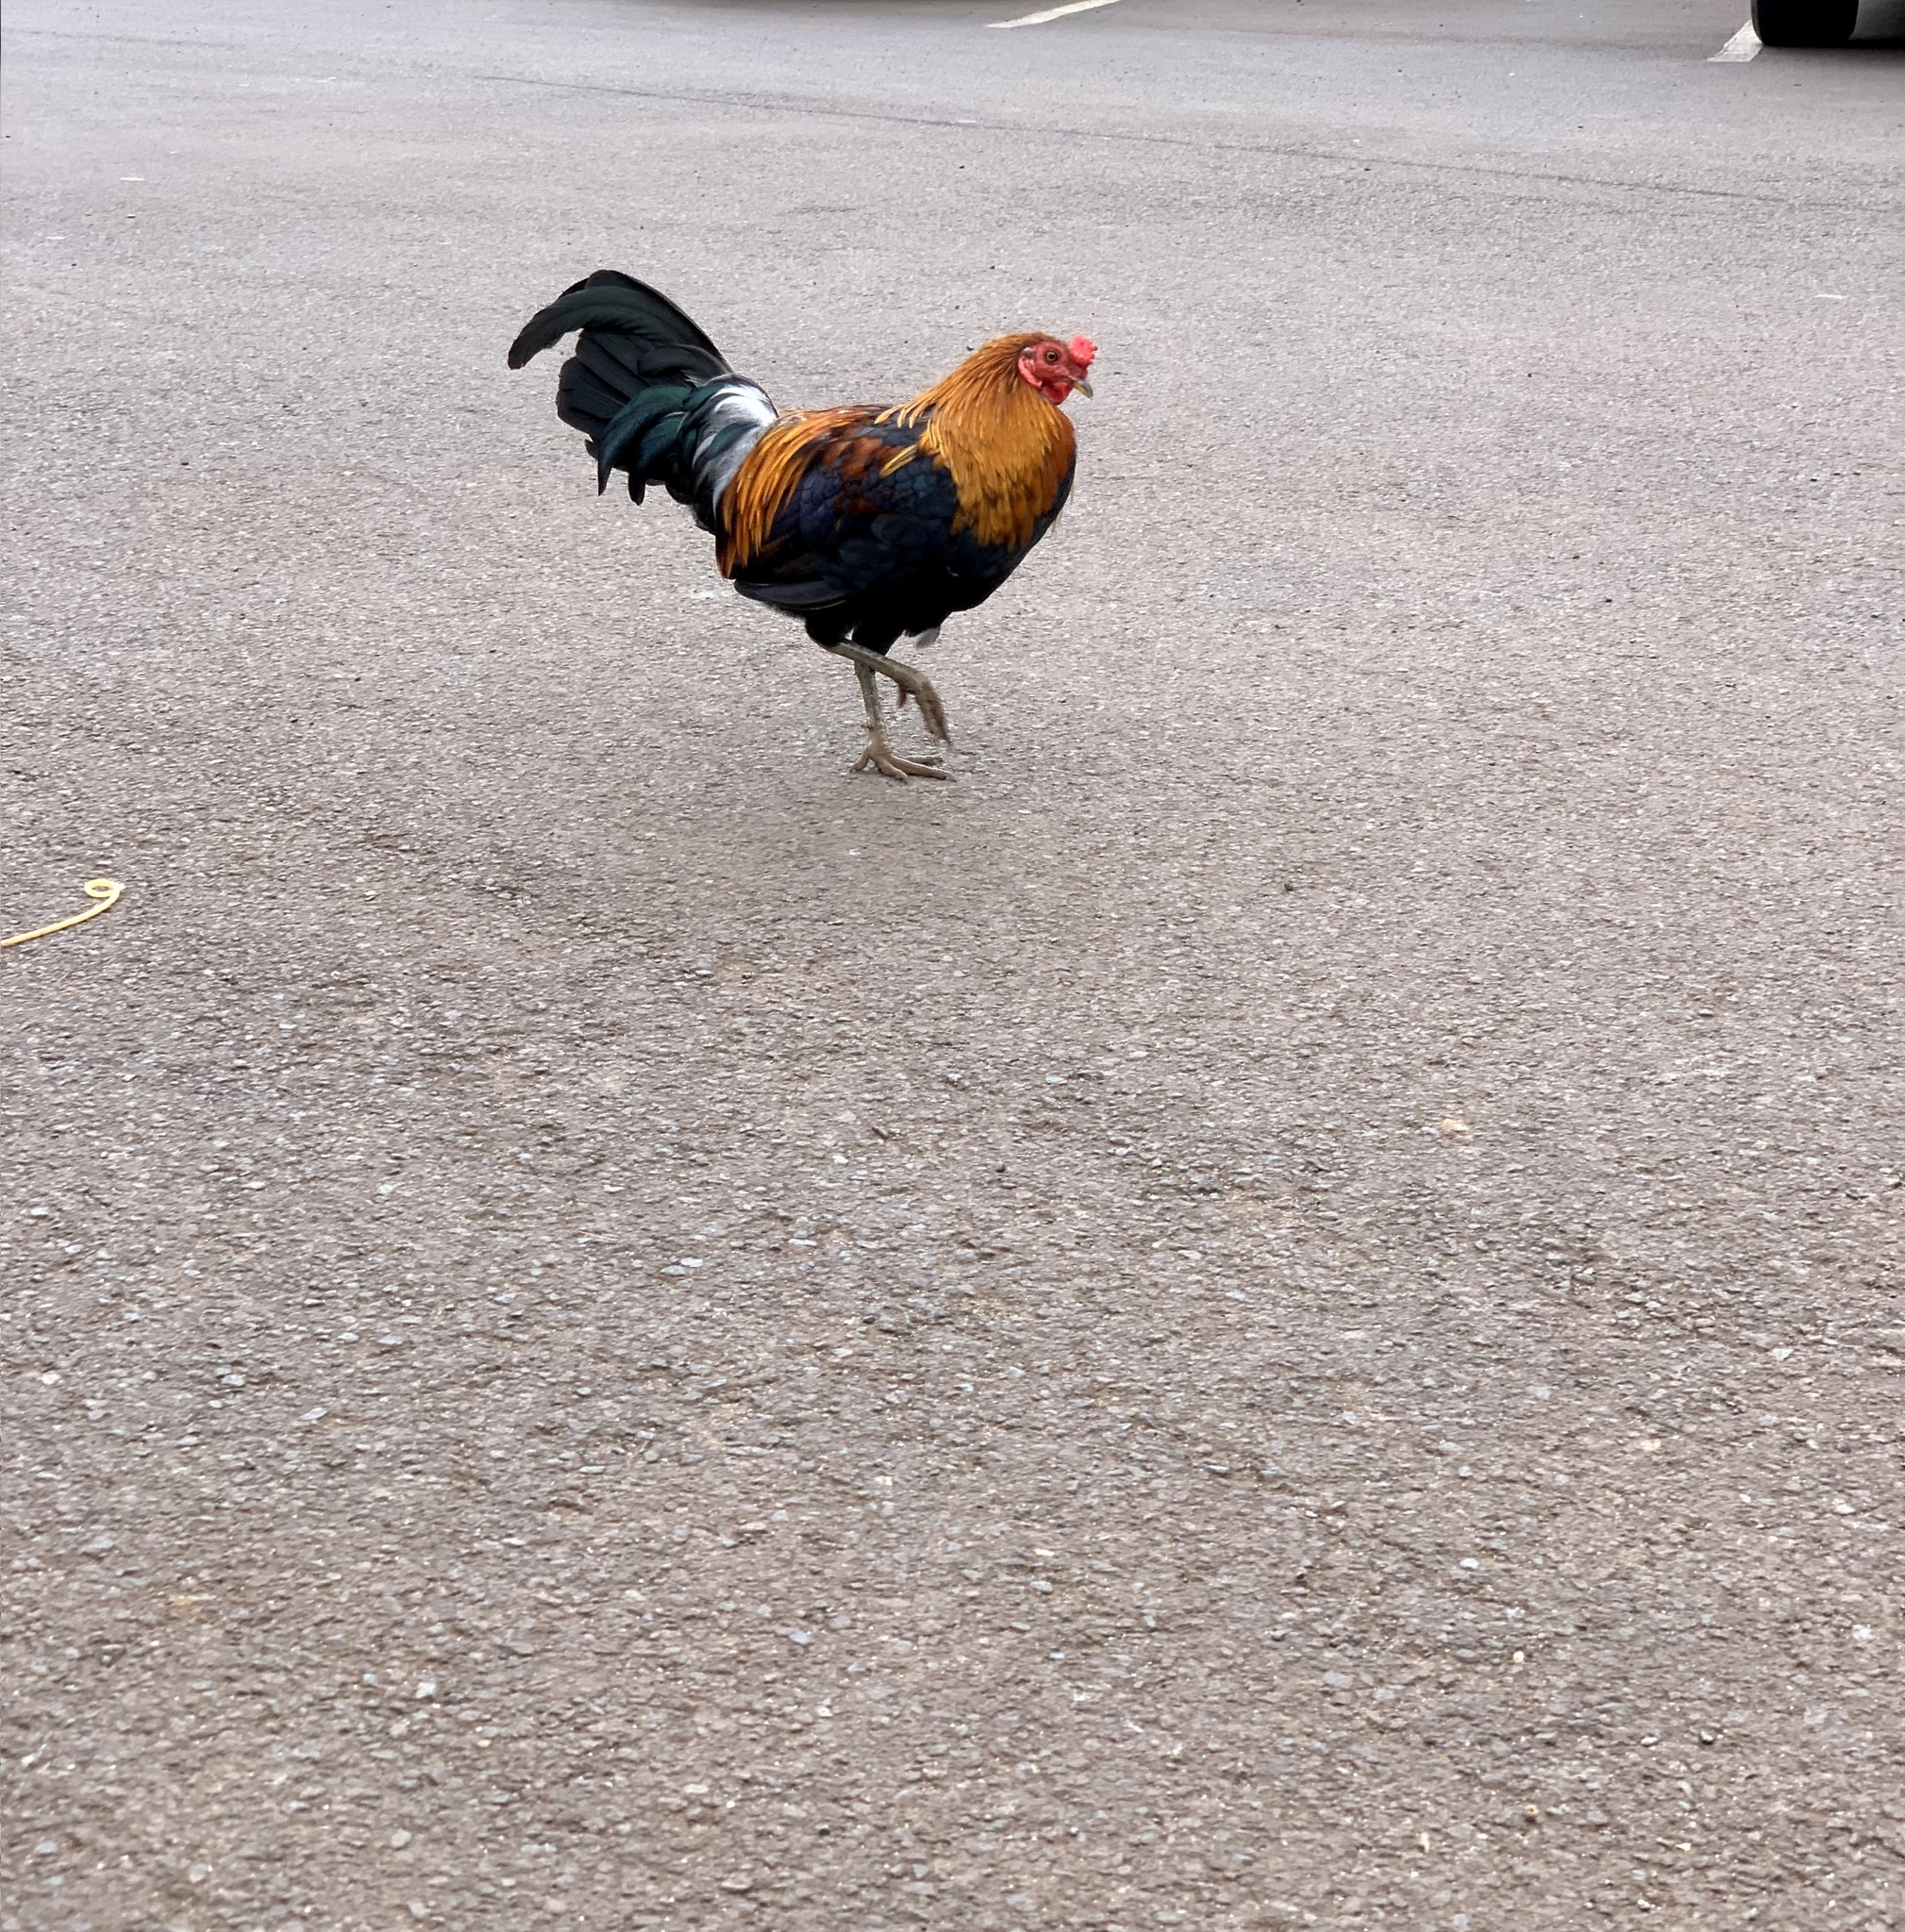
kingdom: Animalia
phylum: Chordata
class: Aves
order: Galliformes
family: Phasianidae
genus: Gallus
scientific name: Gallus gallus
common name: Red junglefowl
